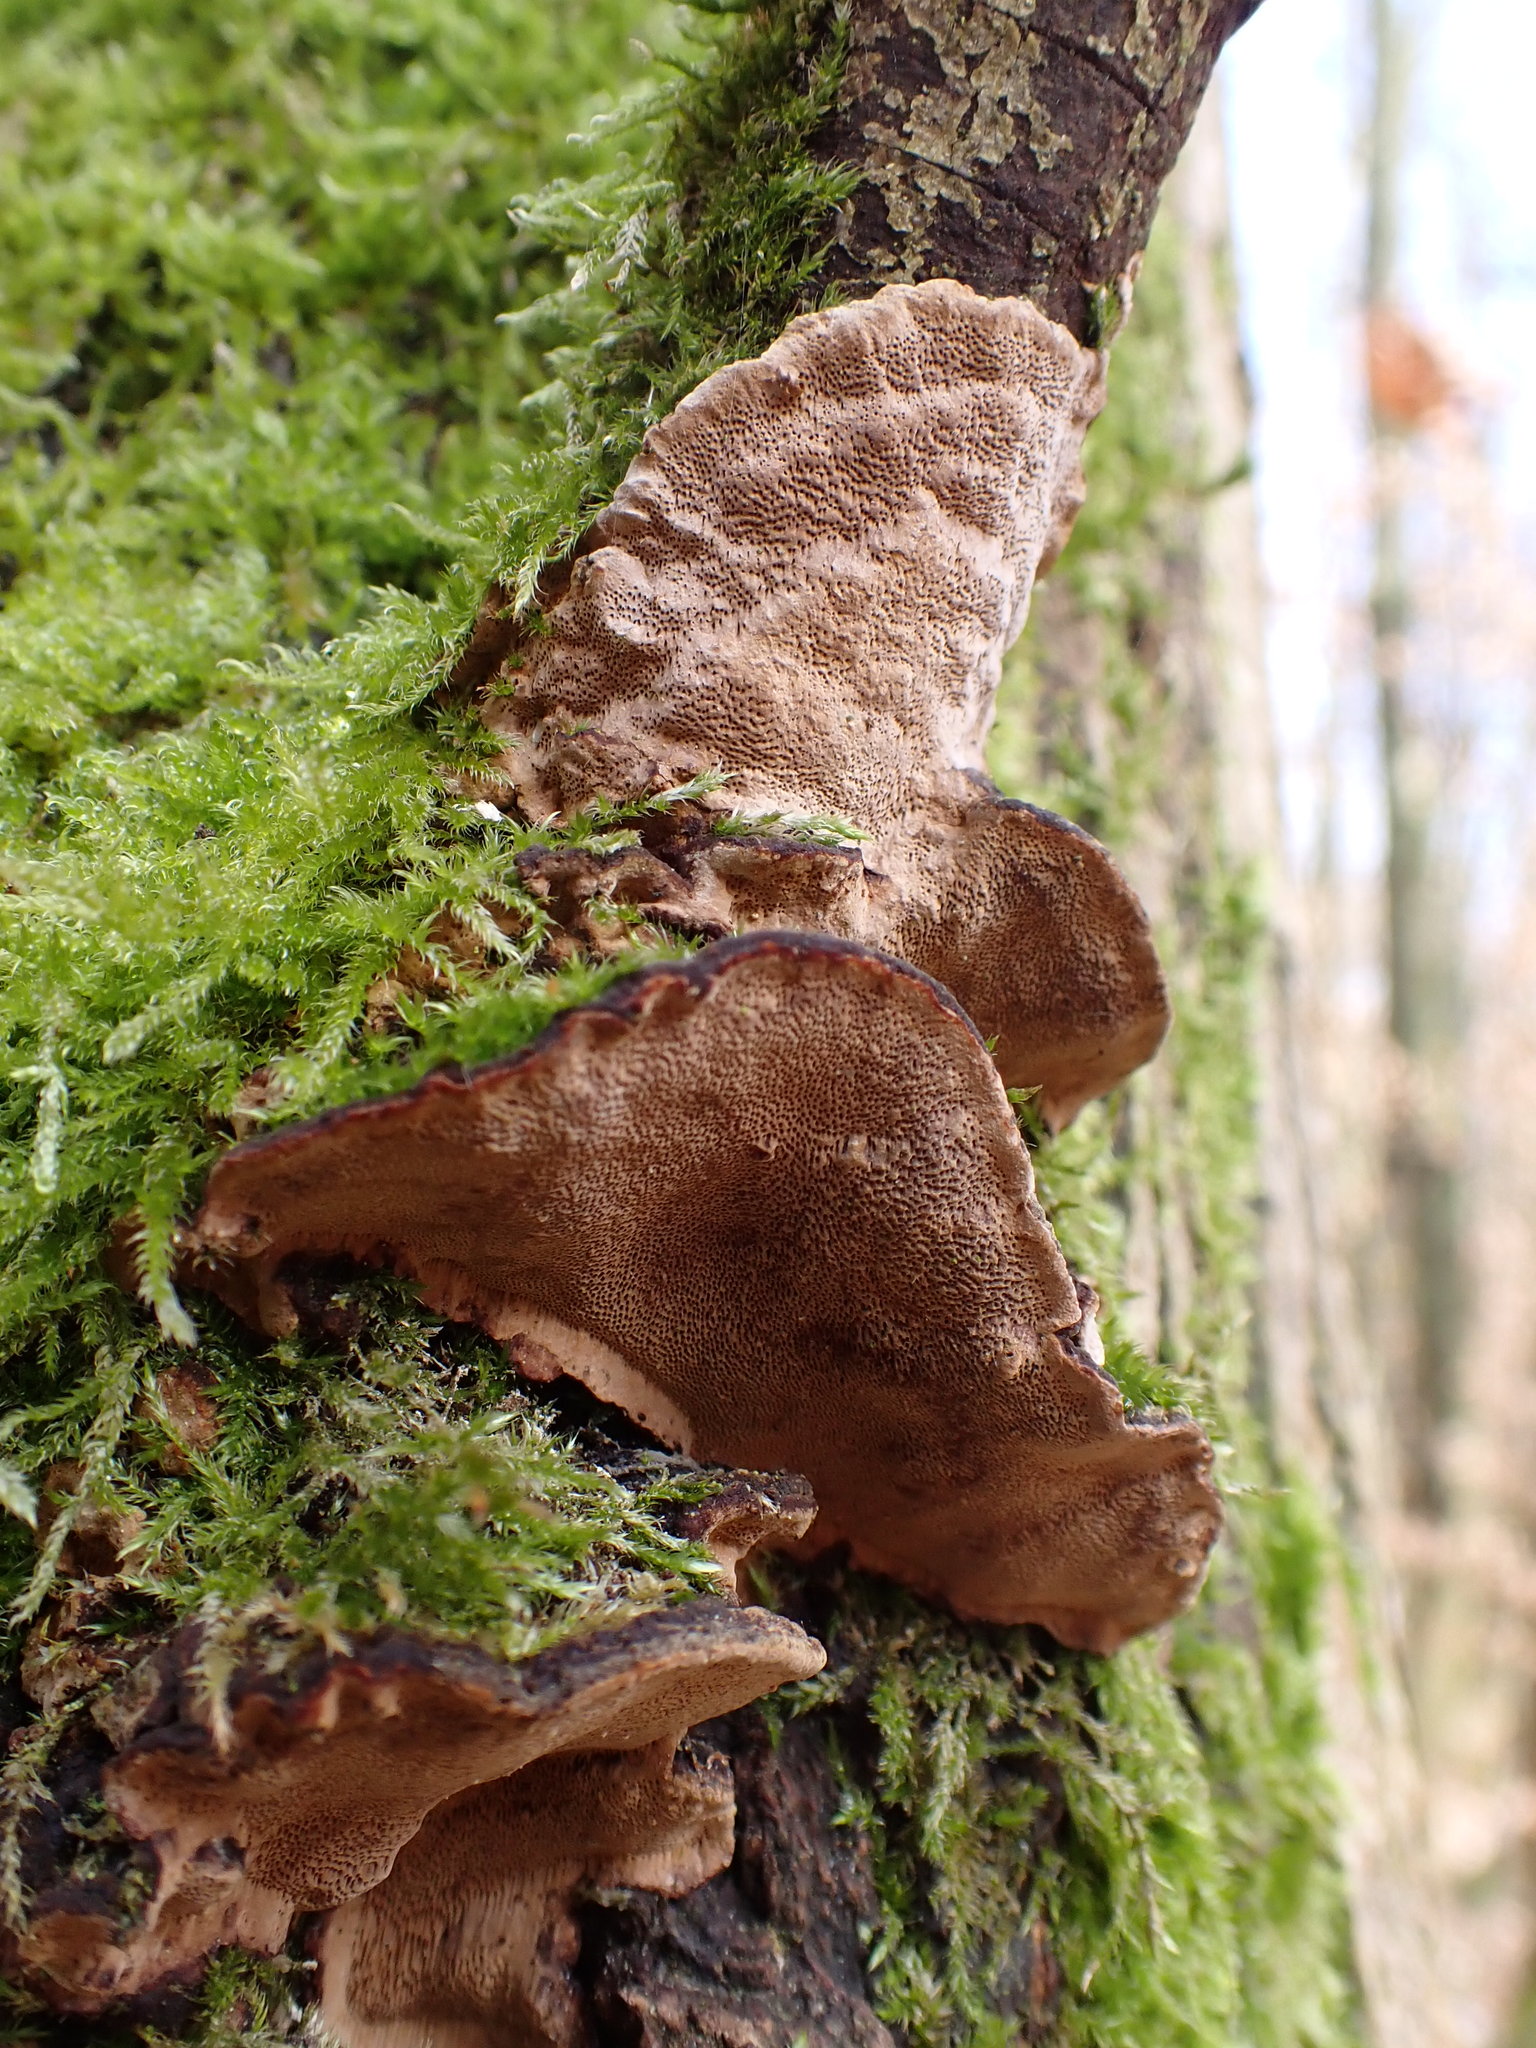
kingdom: Fungi
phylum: Basidiomycota
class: Agaricomycetes
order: Hymenochaetales
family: Hymenochaetaceae
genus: Phellinopsis
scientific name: Phellinopsis conchata
